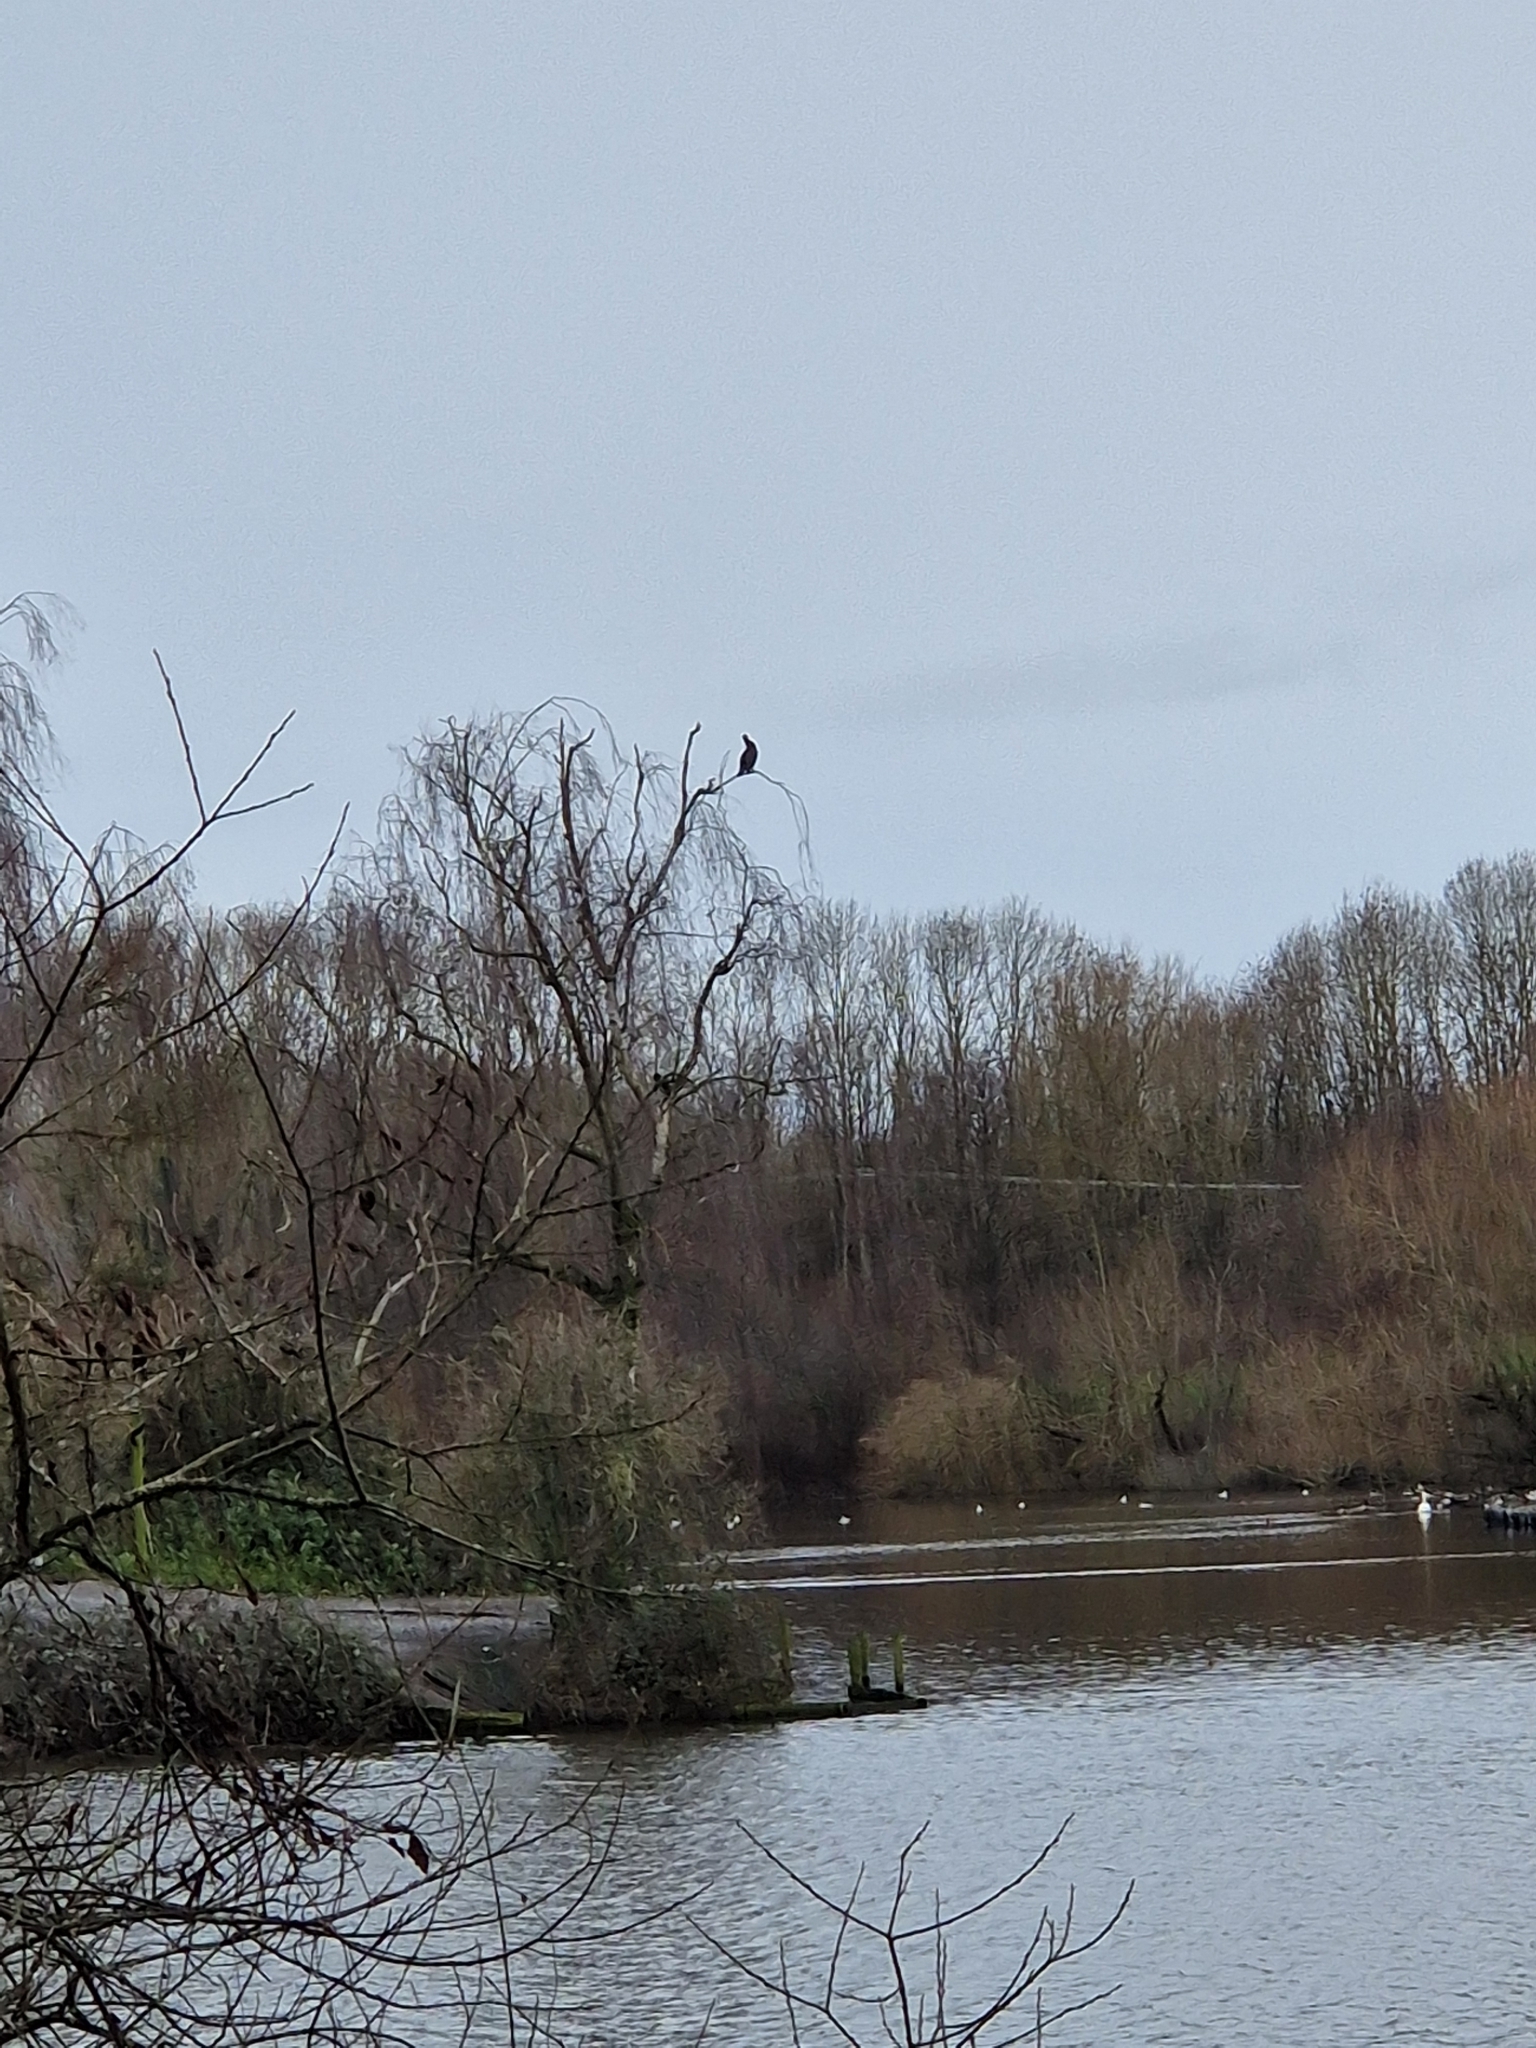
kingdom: Animalia
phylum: Chordata
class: Aves
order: Suliformes
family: Phalacrocoracidae
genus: Phalacrocorax
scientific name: Phalacrocorax carbo
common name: Great cormorant
